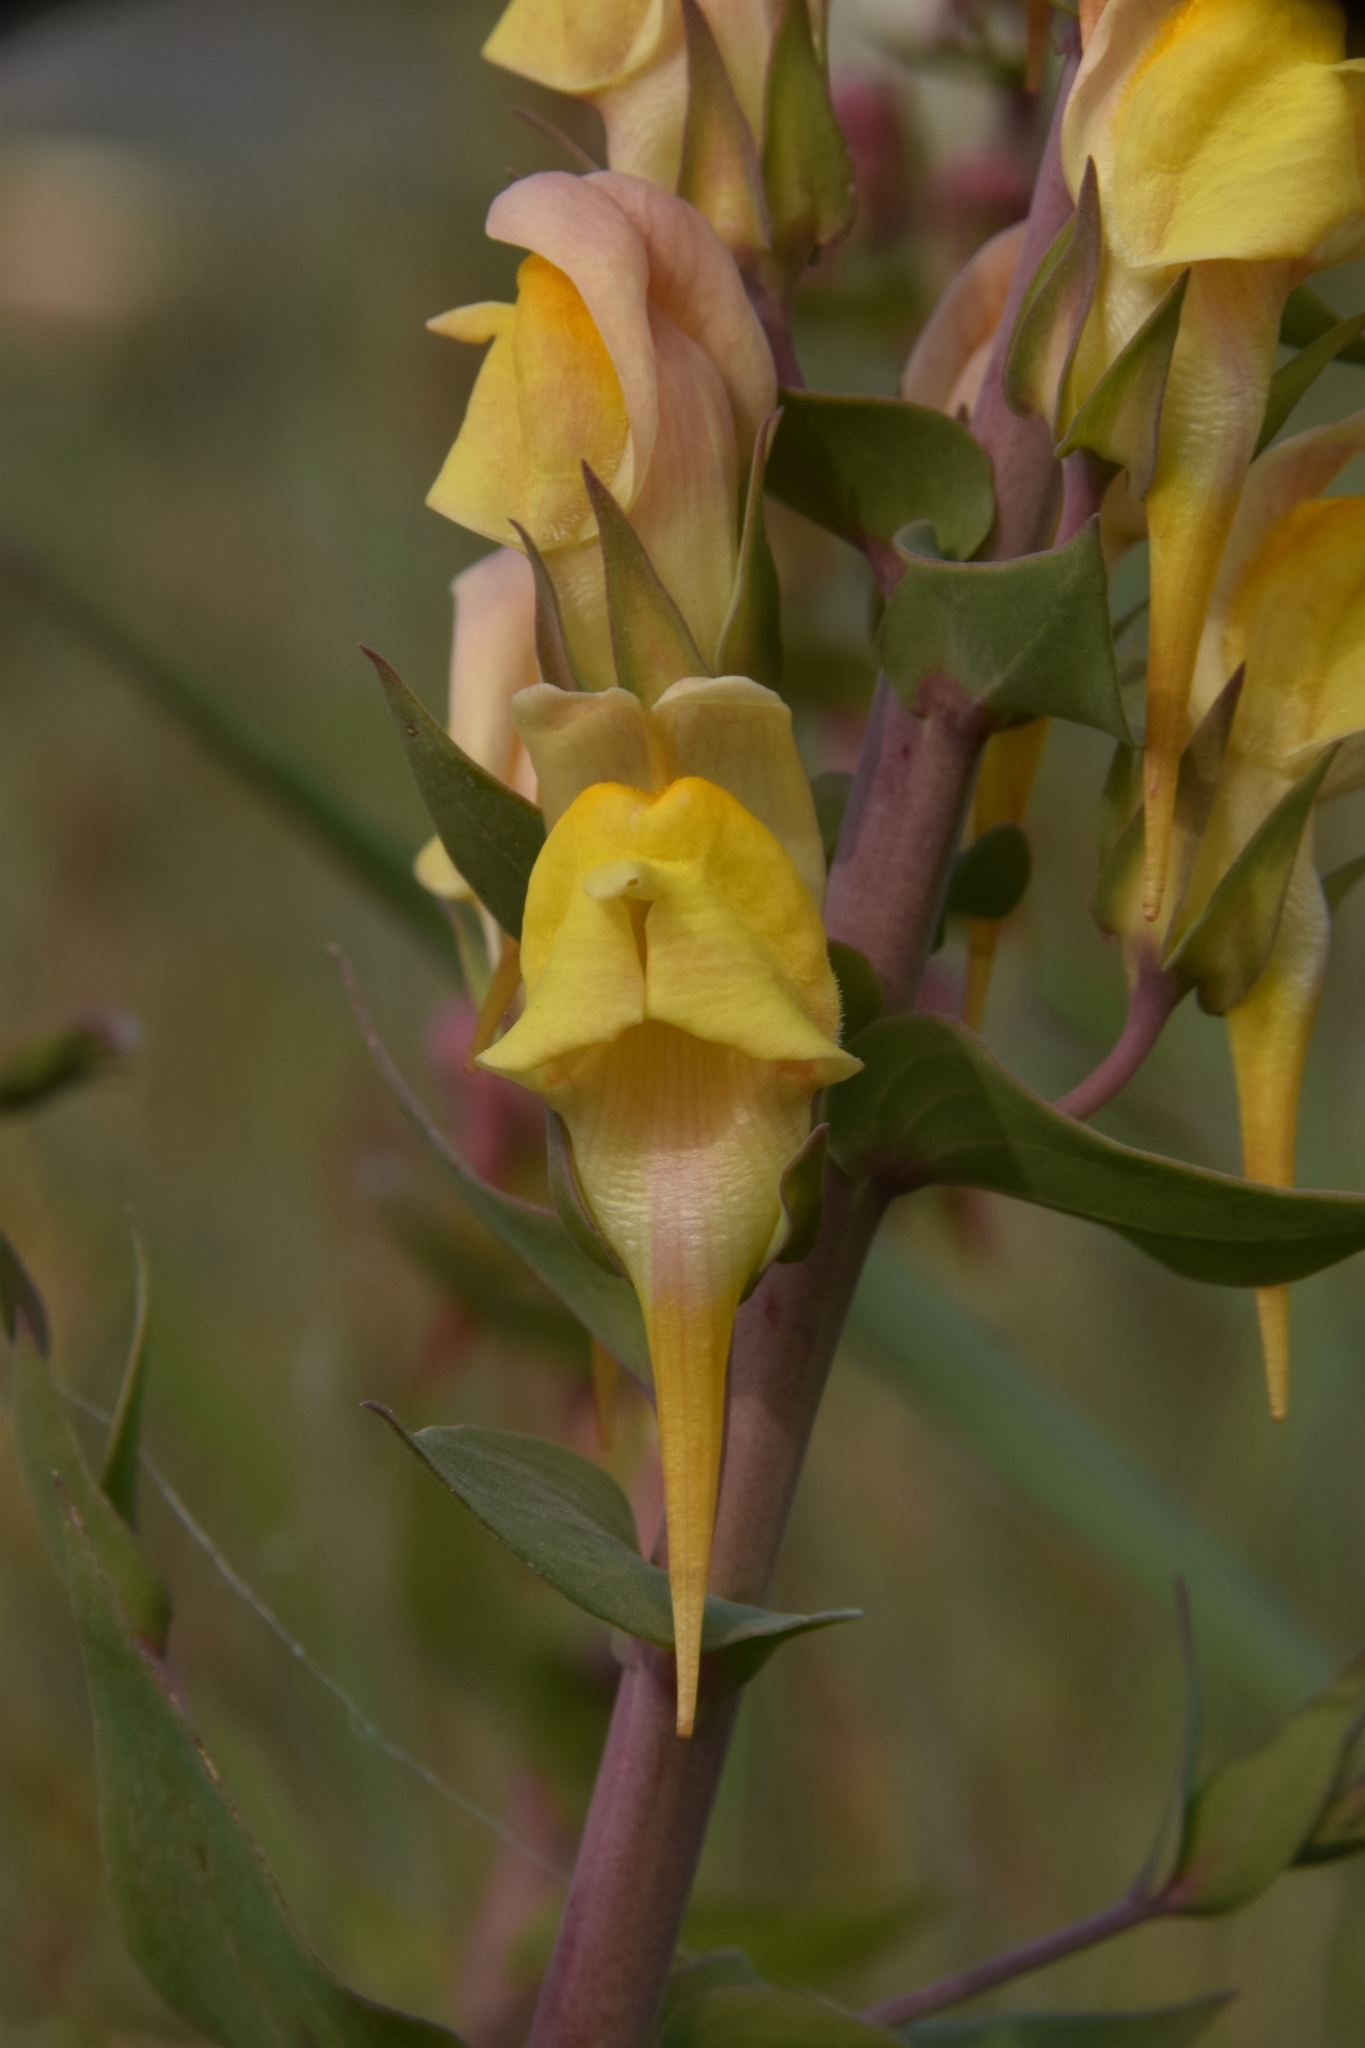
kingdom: Plantae
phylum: Tracheophyta
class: Magnoliopsida
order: Lamiales
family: Plantaginaceae
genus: Linaria
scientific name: Linaria dalmatica
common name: Dalmatian toadflax
